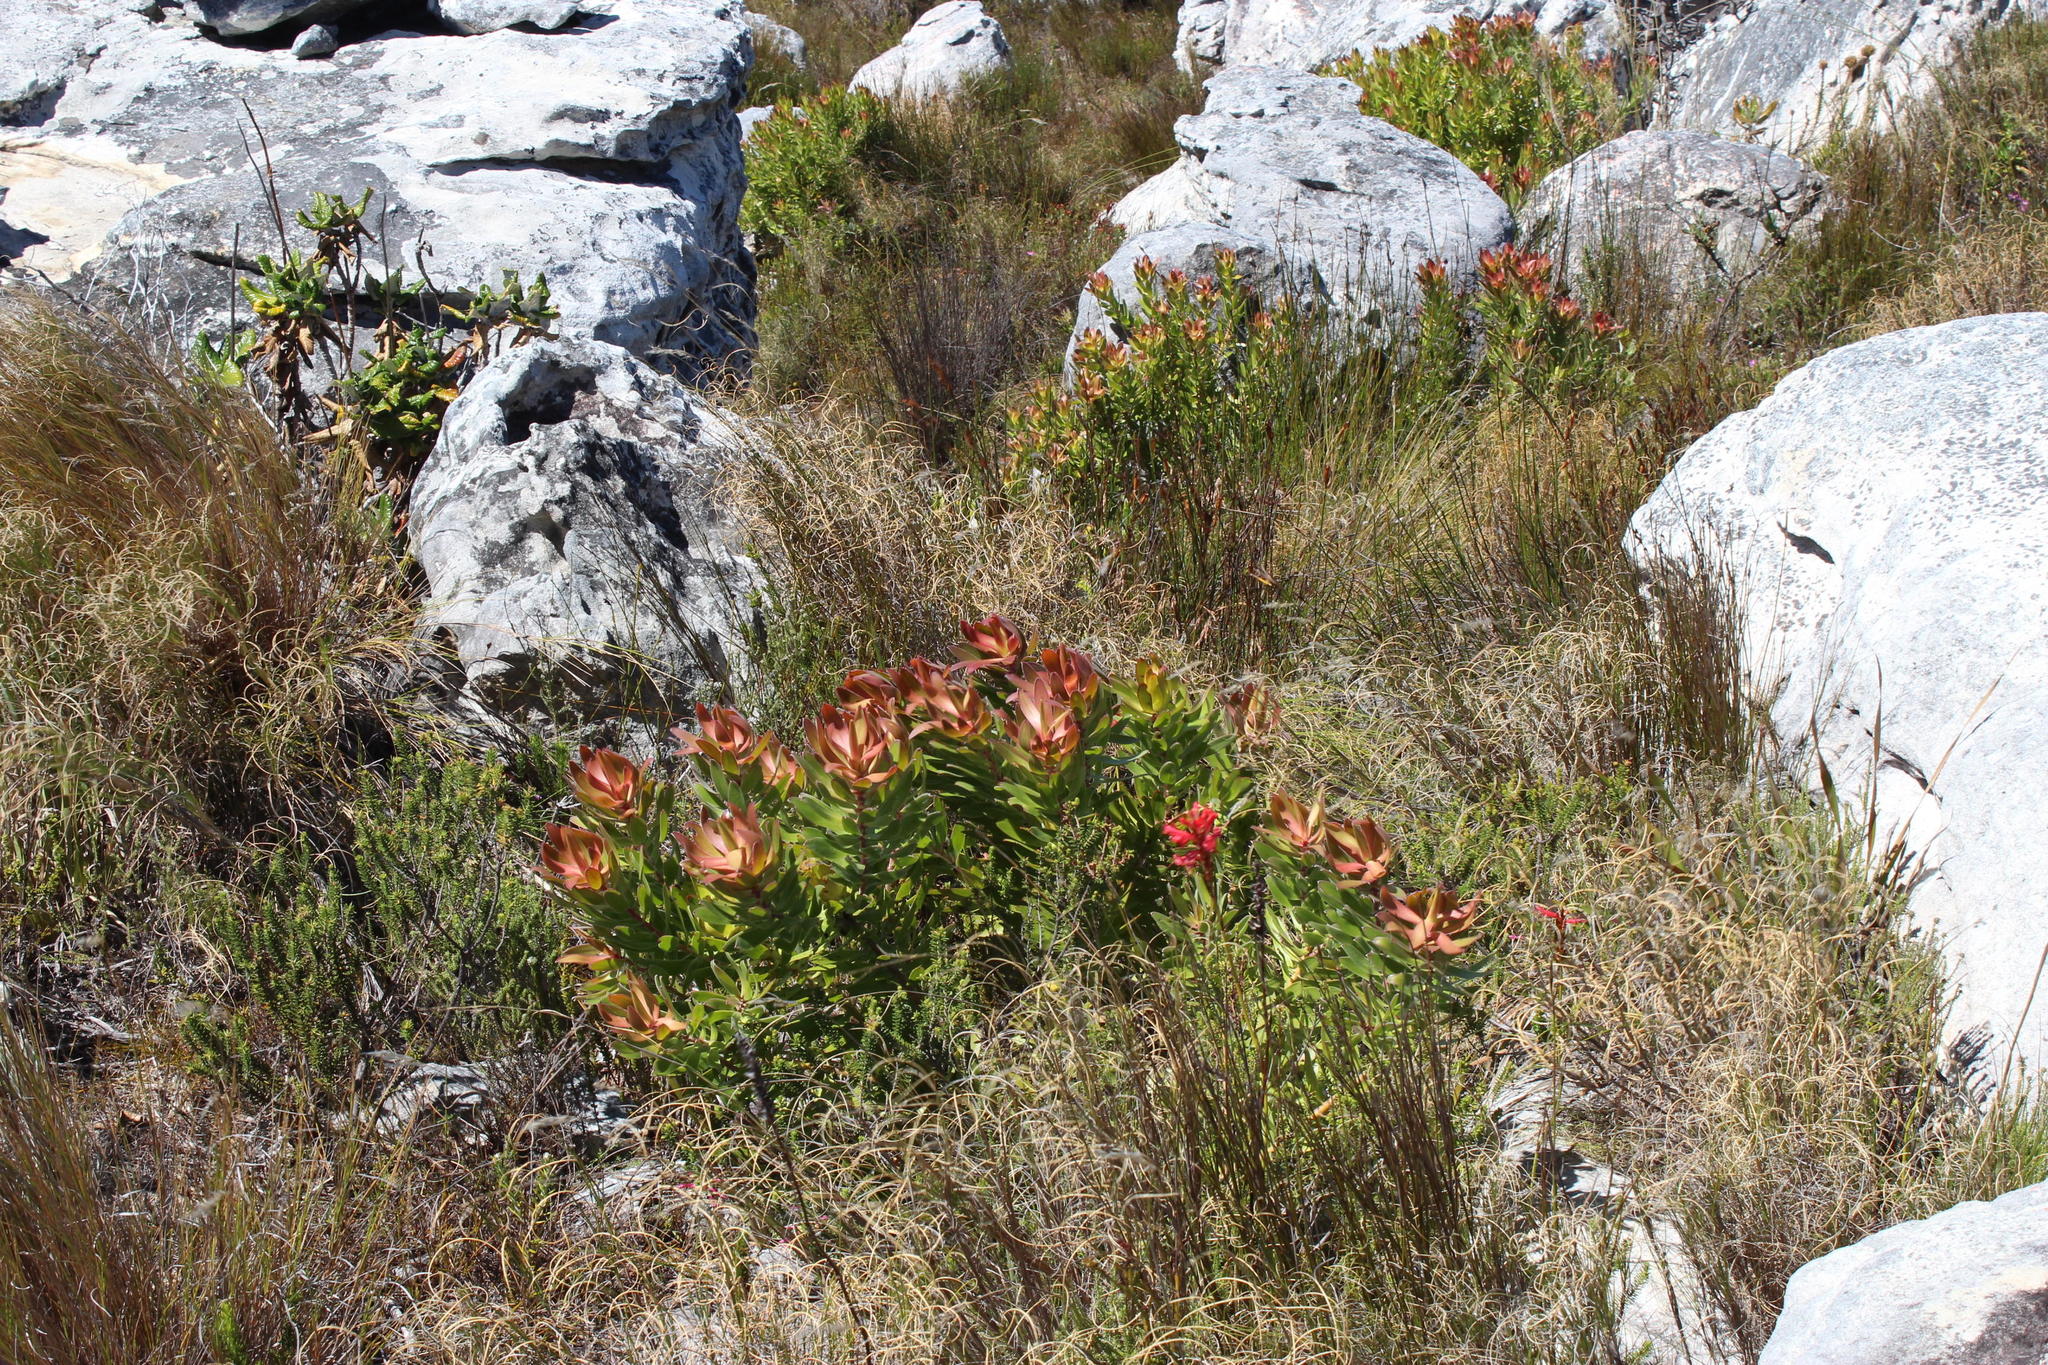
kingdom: Plantae
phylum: Tracheophyta
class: Magnoliopsida
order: Proteales
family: Proteaceae
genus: Leucadendron
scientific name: Leucadendron laureolum
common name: Golden sunshinebush
